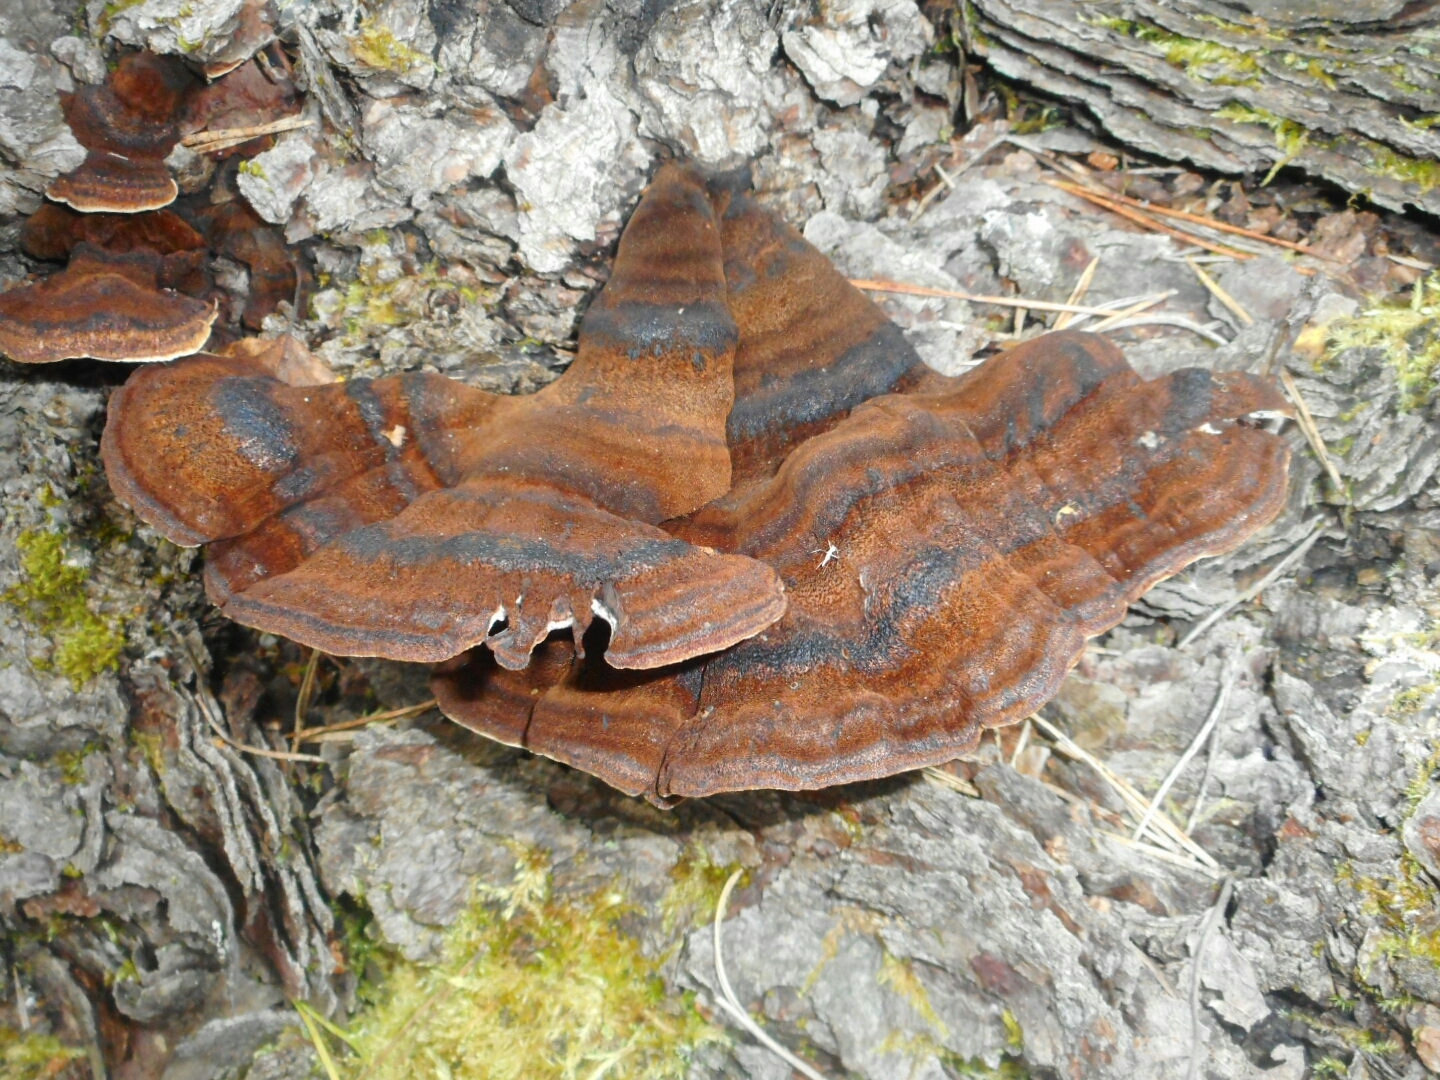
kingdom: Fungi
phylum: Basidiomycota
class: Agaricomycetes
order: Polyporales
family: Ischnodermataceae
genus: Ischnoderma
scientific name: Ischnoderma benzoinum
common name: Benzoin bracket
